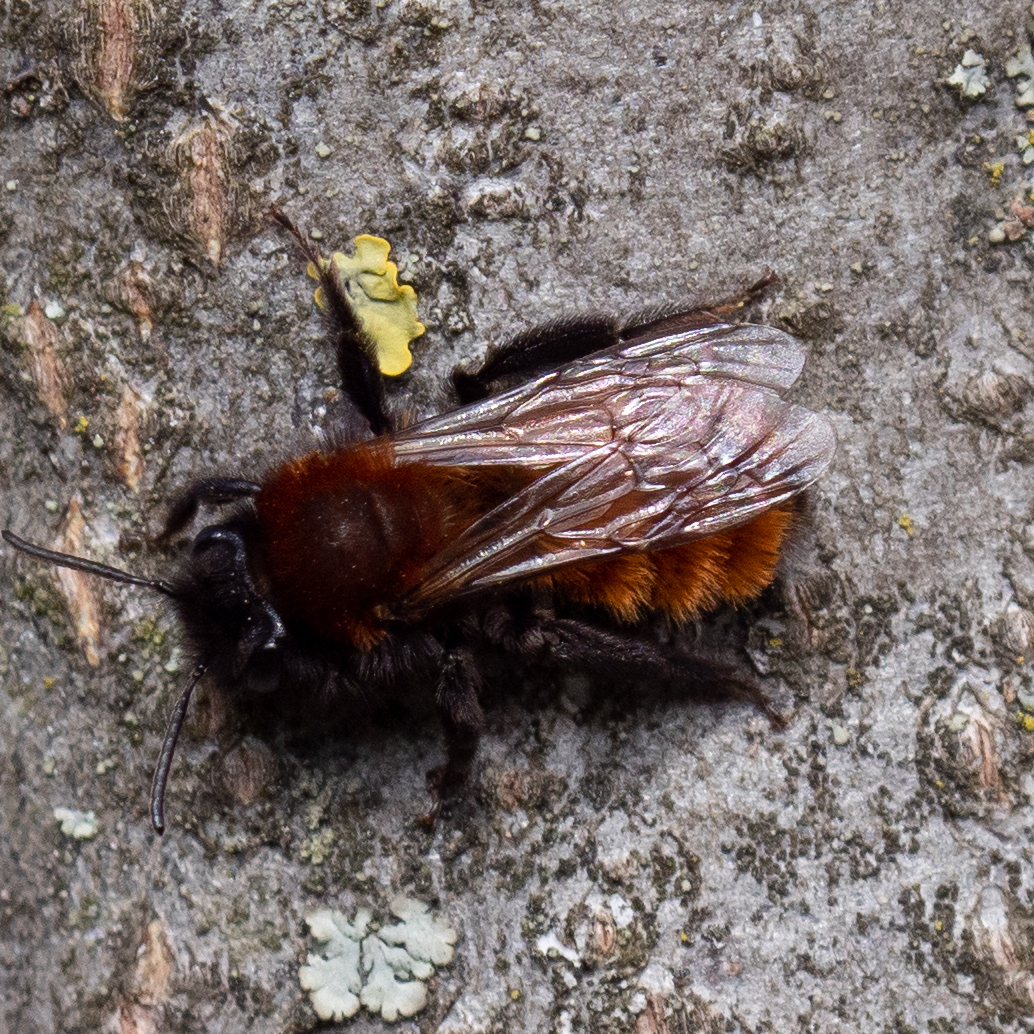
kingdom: Animalia
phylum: Arthropoda
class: Insecta
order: Hymenoptera
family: Andrenidae
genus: Andrena
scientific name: Andrena fulva
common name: Tawny mining bee
